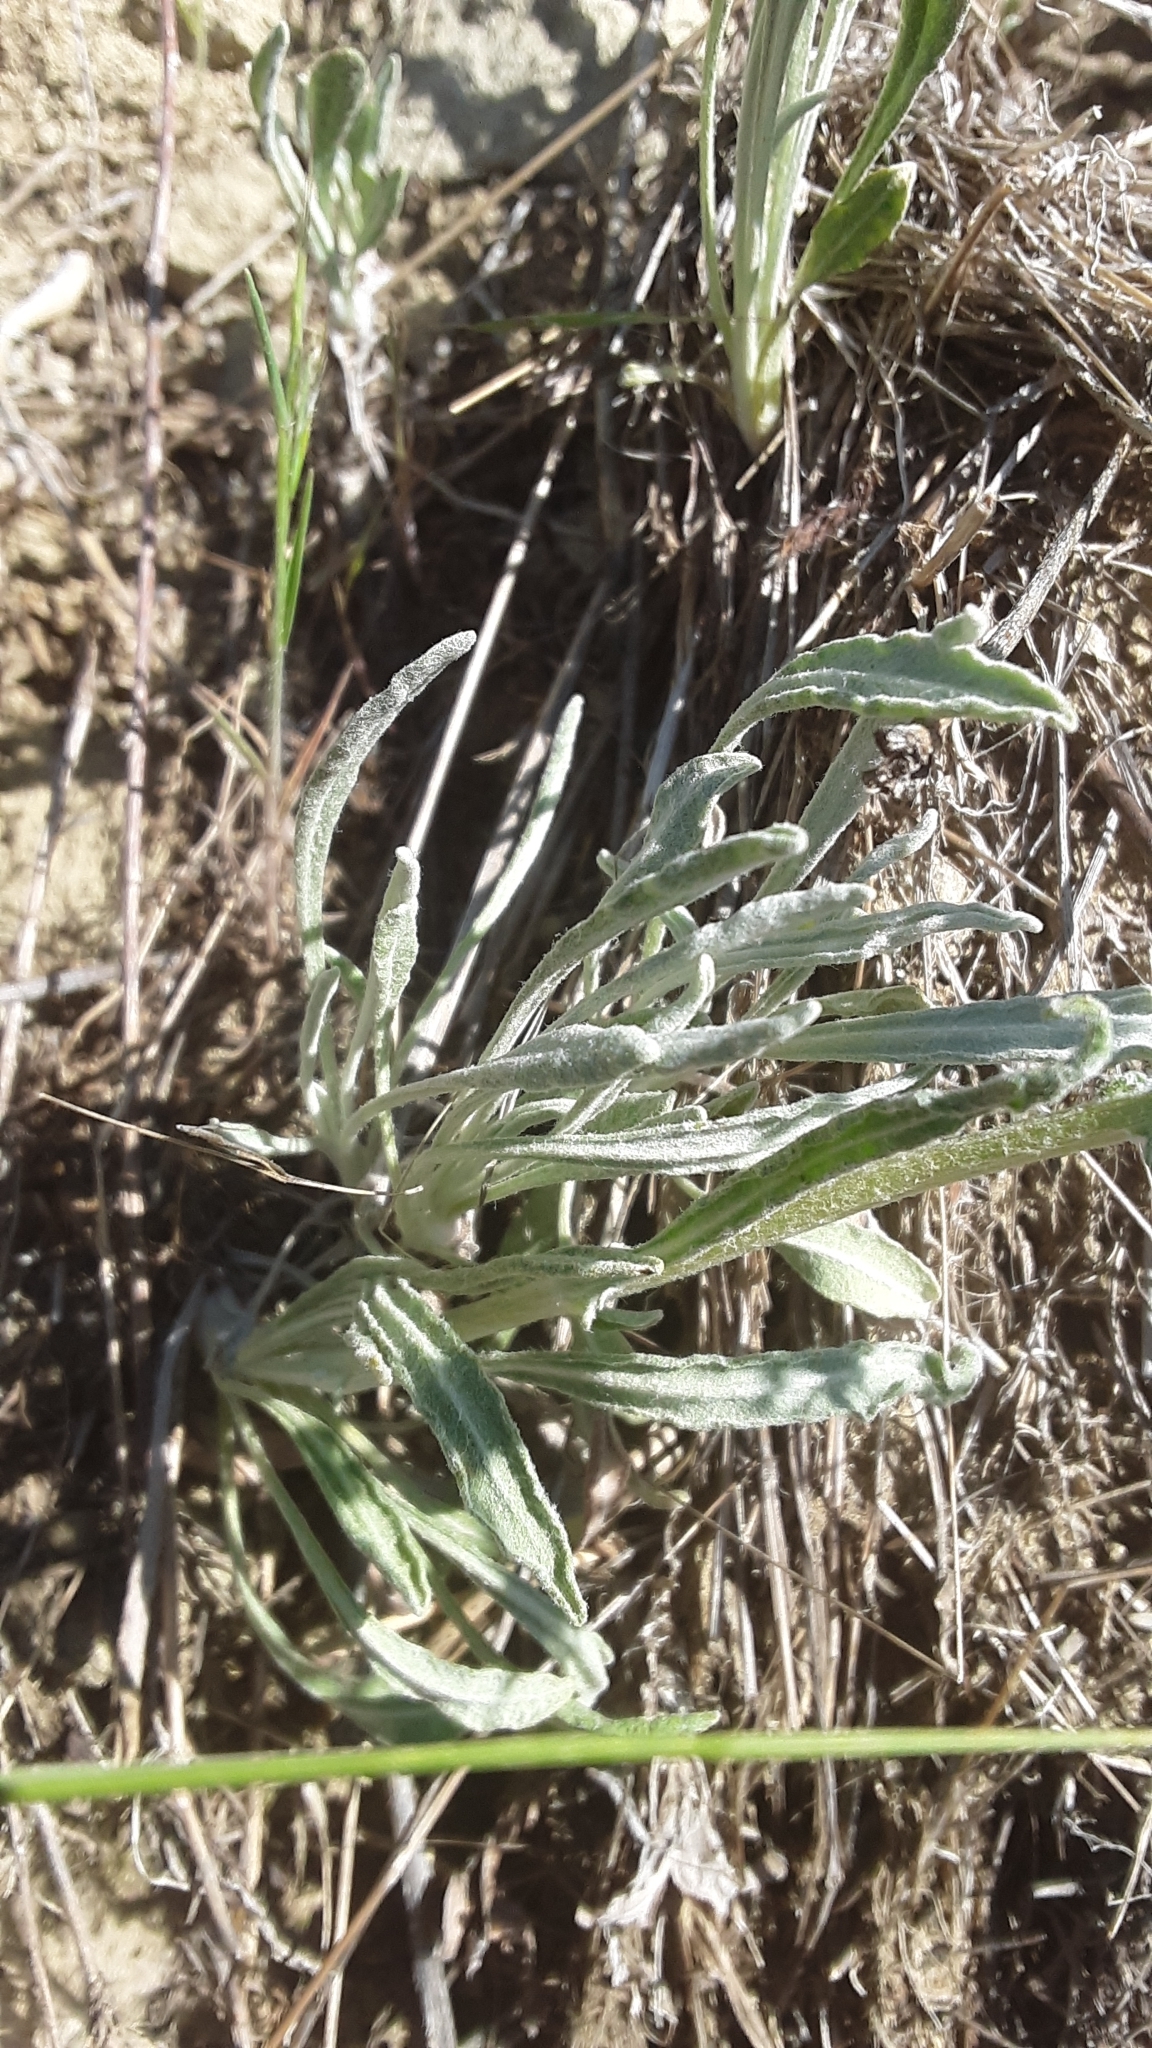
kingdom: Plantae
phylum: Tracheophyta
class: Magnoliopsida
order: Asterales
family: Asteraceae
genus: Packera
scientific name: Packera cana
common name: Woolly groundsel
